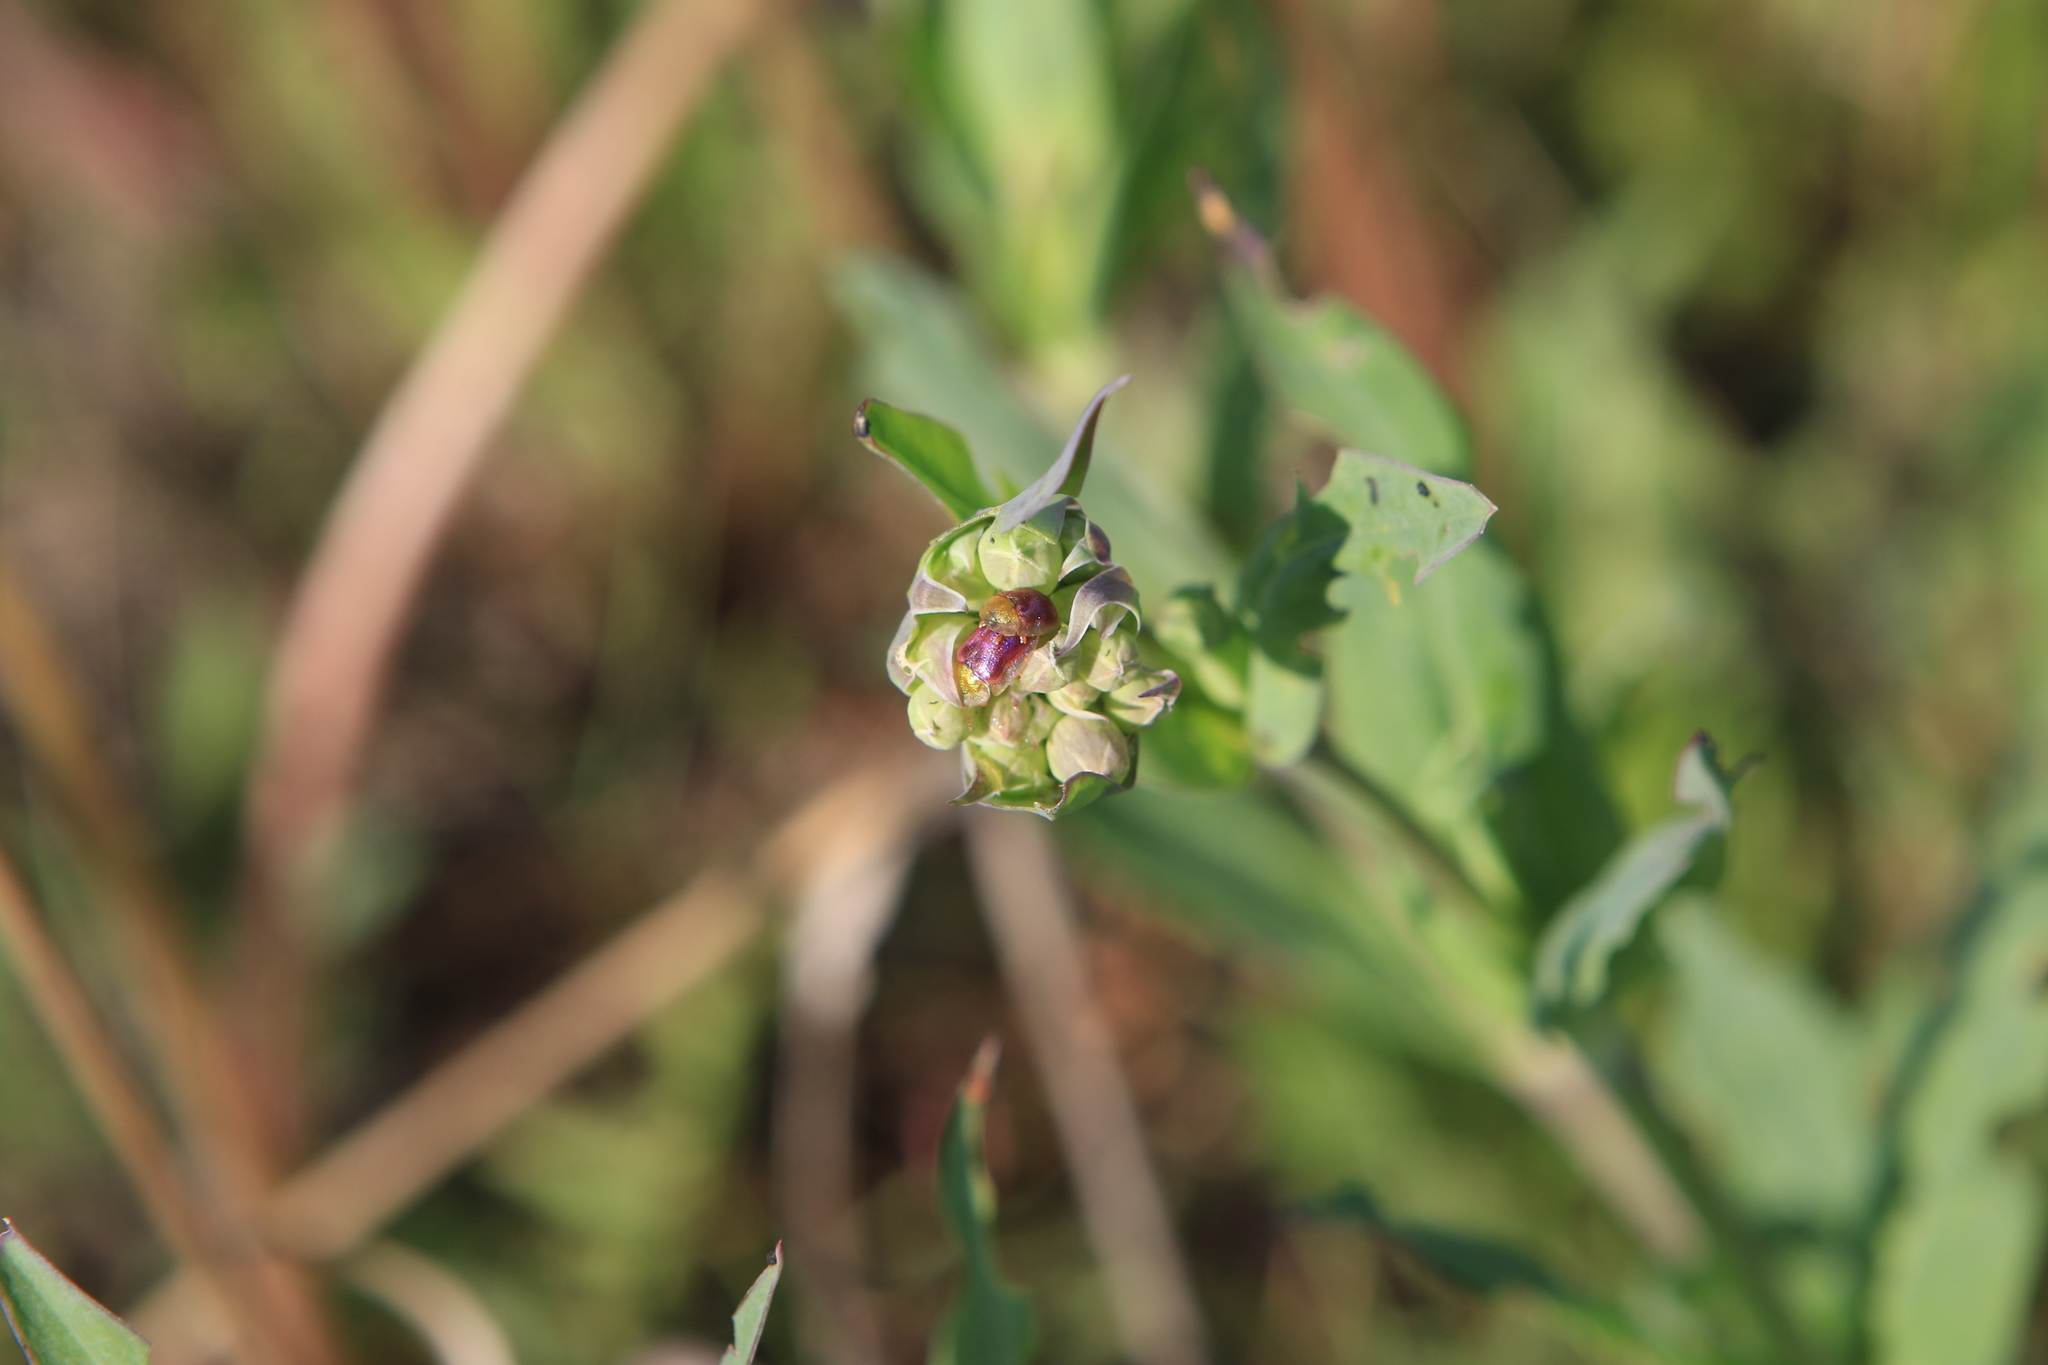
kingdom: Plantae
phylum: Tracheophyta
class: Magnoliopsida
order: Caryophyllales
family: Caryophyllaceae
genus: Silene
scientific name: Silene vulgaris
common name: Bladder campion
